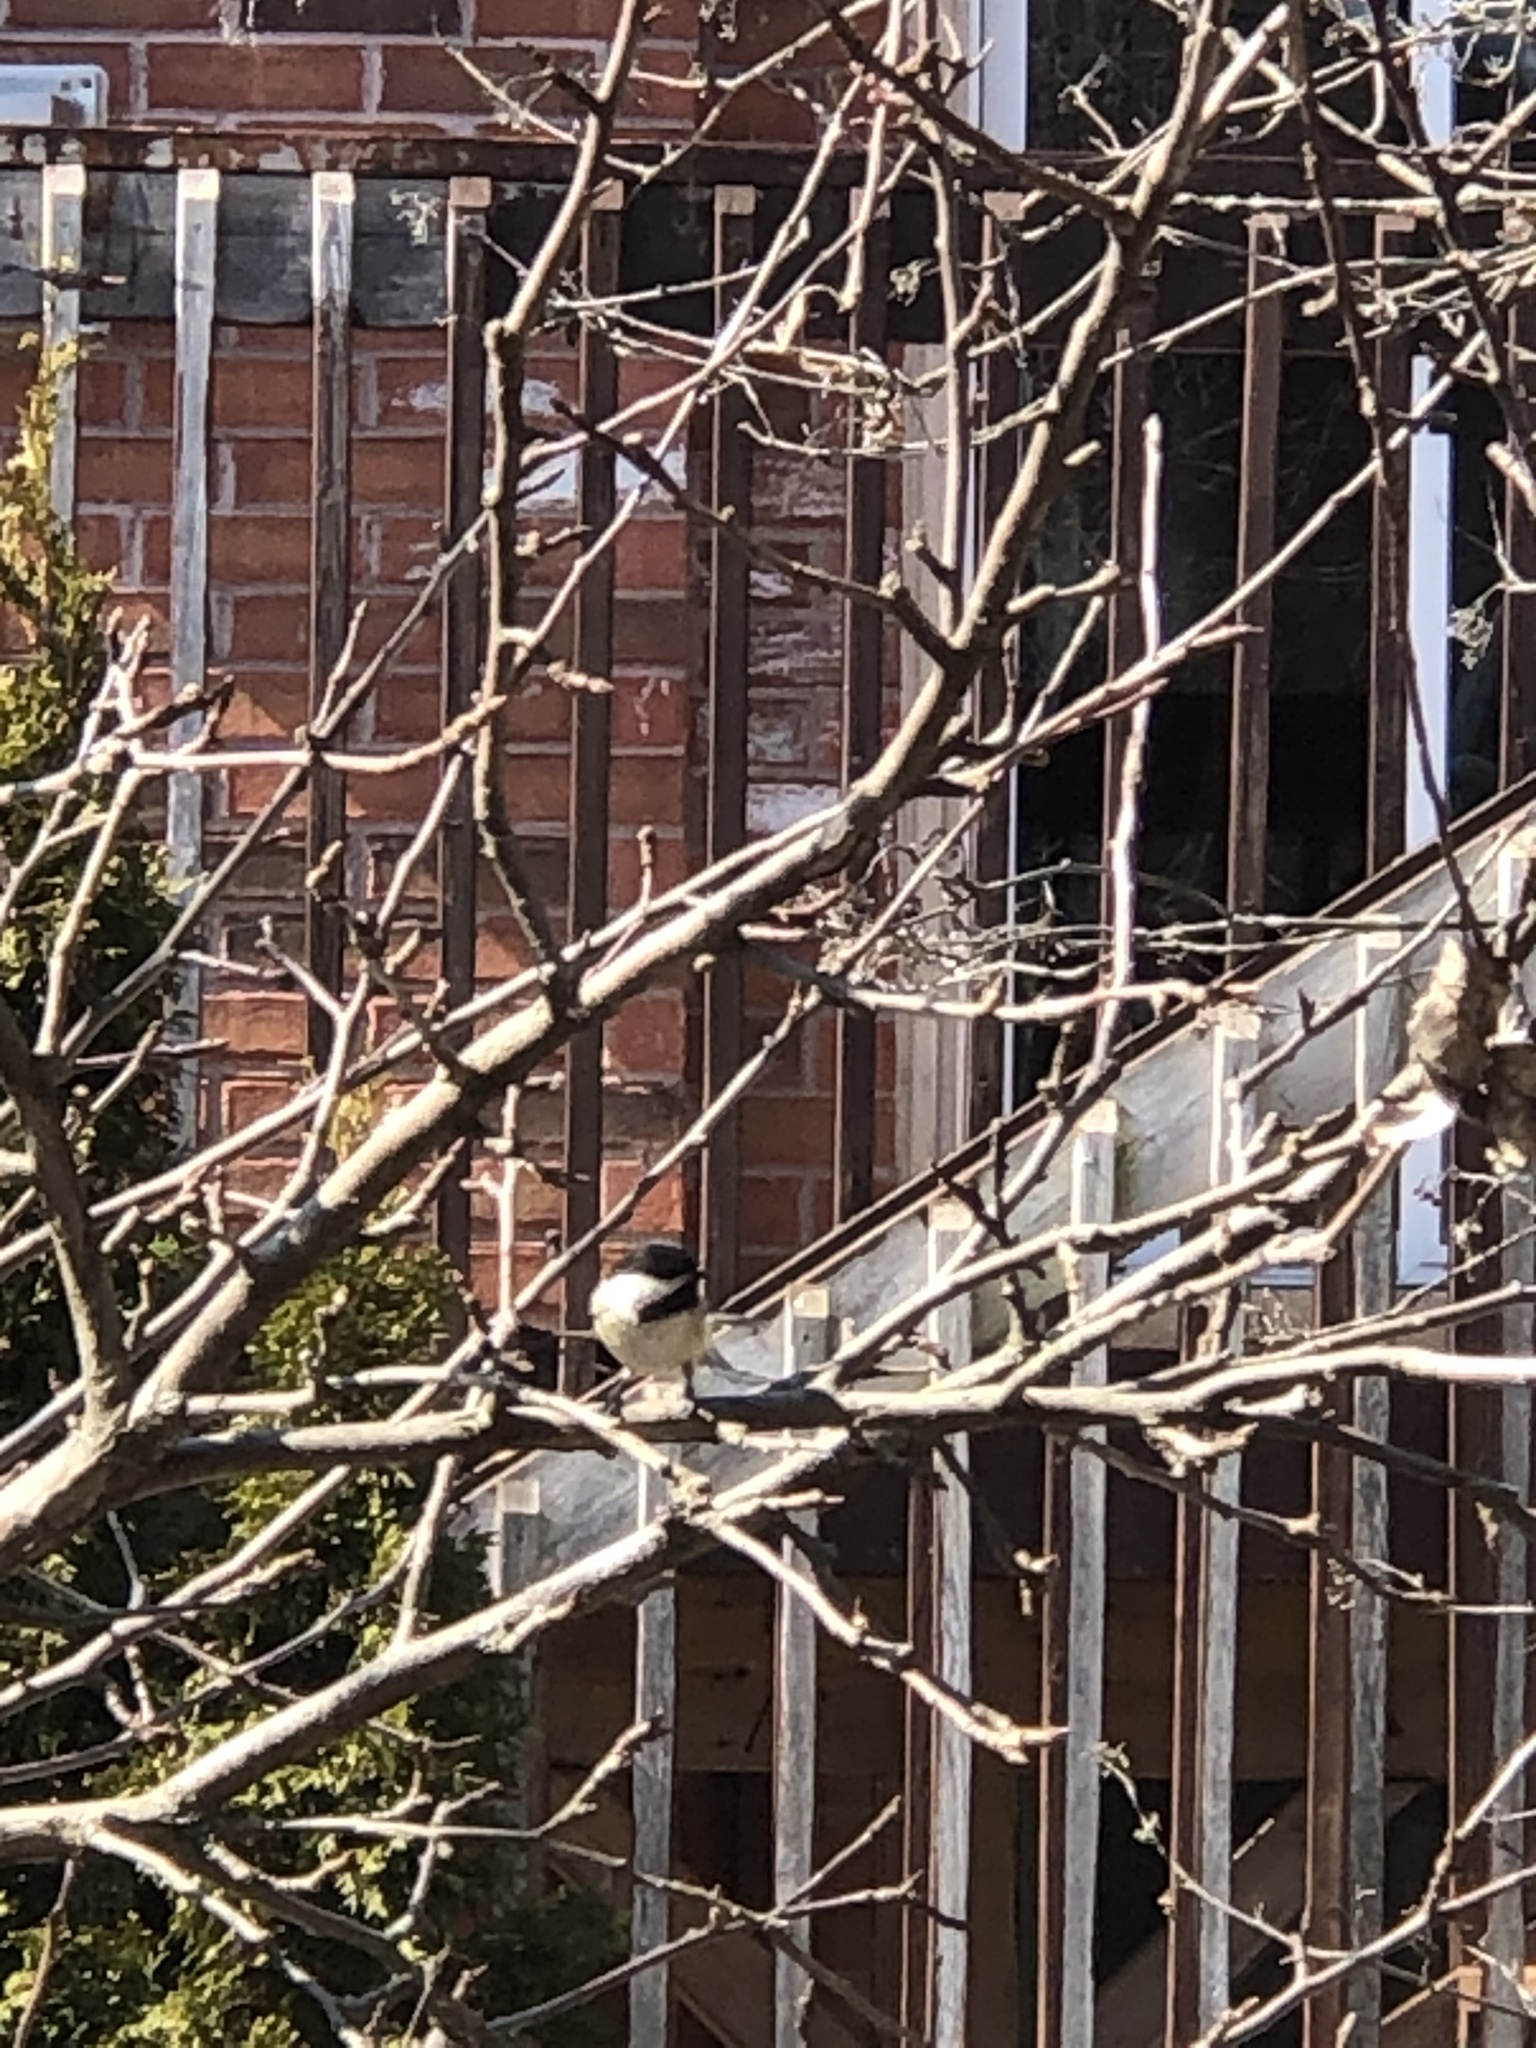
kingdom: Animalia
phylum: Chordata
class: Aves
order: Passeriformes
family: Paridae
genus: Poecile
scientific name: Poecile atricapillus
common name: Black-capped chickadee
